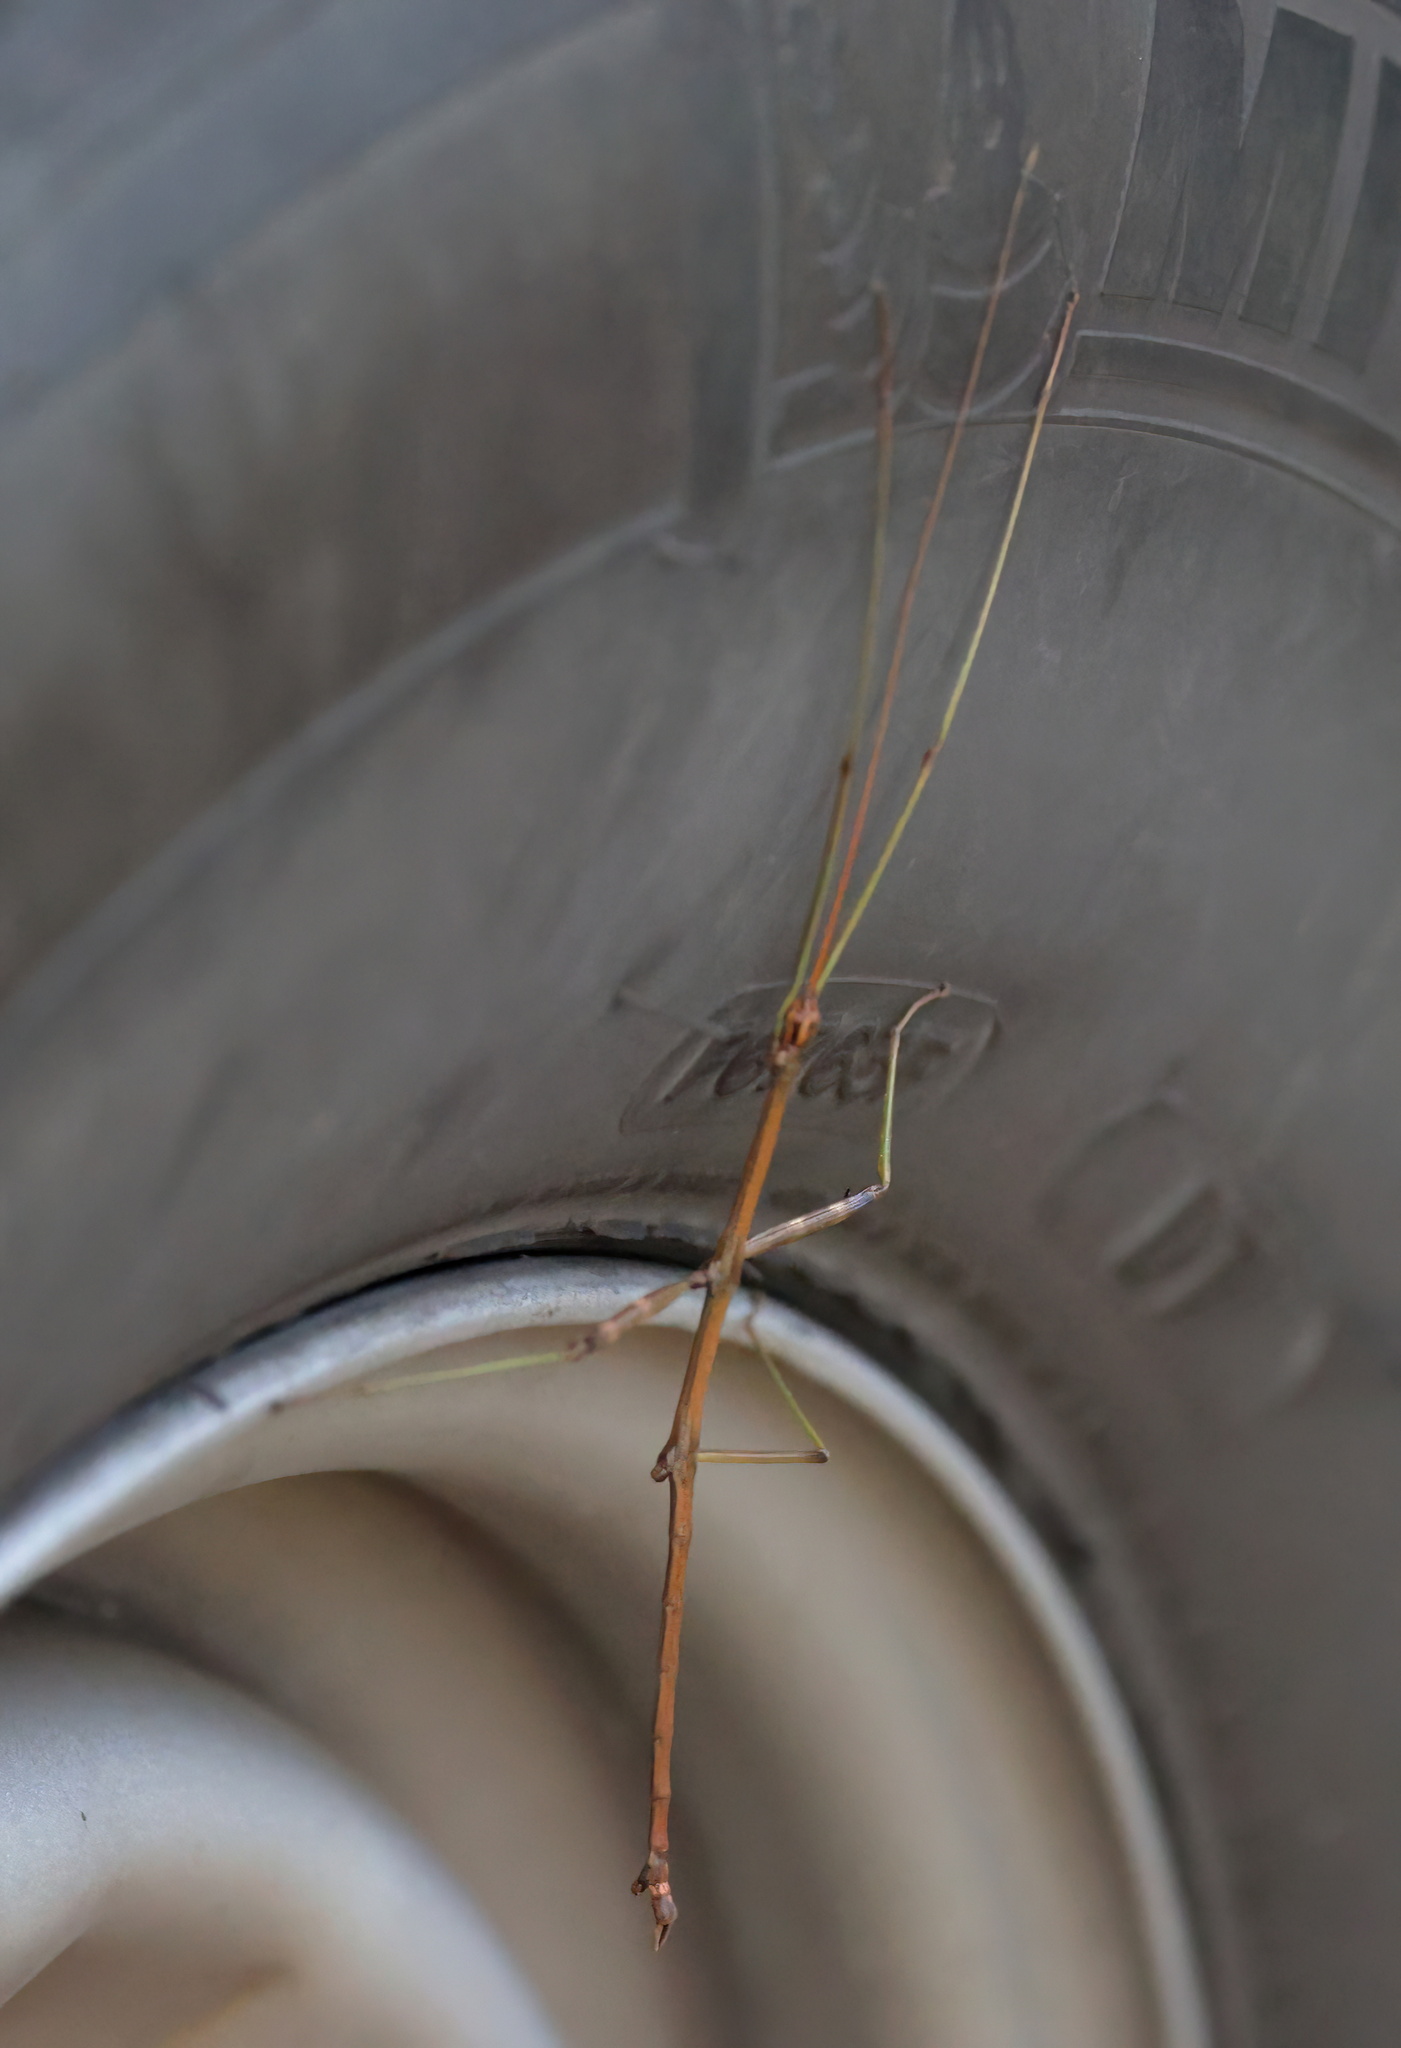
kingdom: Animalia
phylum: Arthropoda
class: Insecta
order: Phasmida
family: Diapheromeridae
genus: Diapheromera
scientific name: Diapheromera femorata
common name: Common american walkingstick
